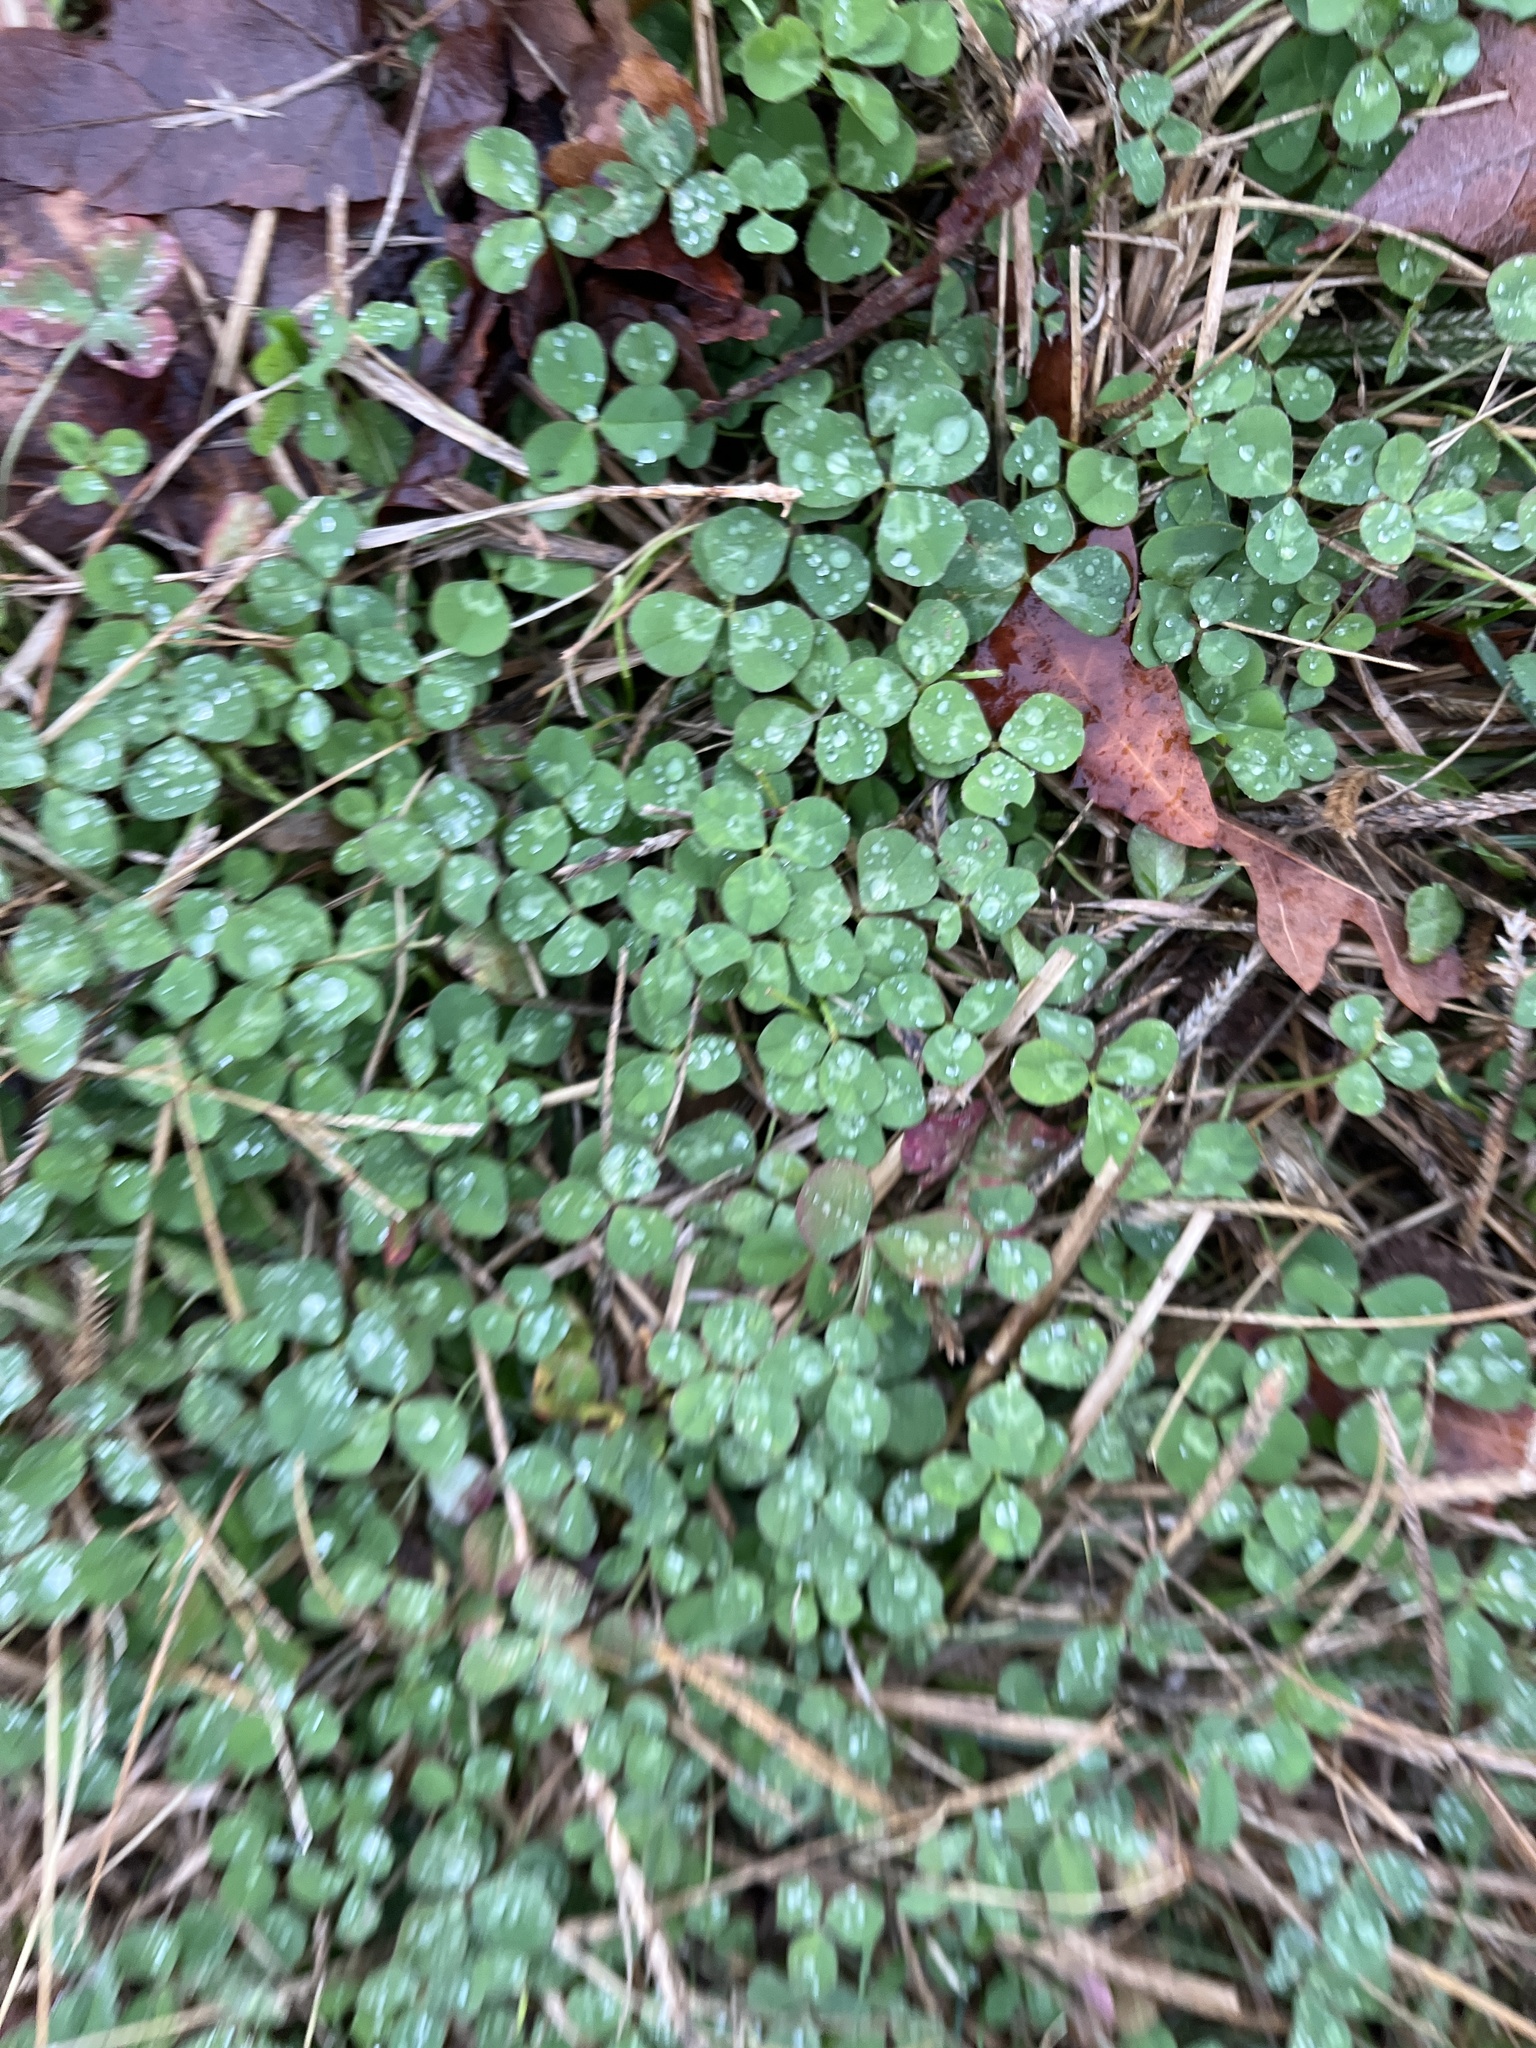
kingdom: Plantae
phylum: Tracheophyta
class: Magnoliopsida
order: Fabales
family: Fabaceae
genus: Trifolium
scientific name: Trifolium repens
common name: White clover
